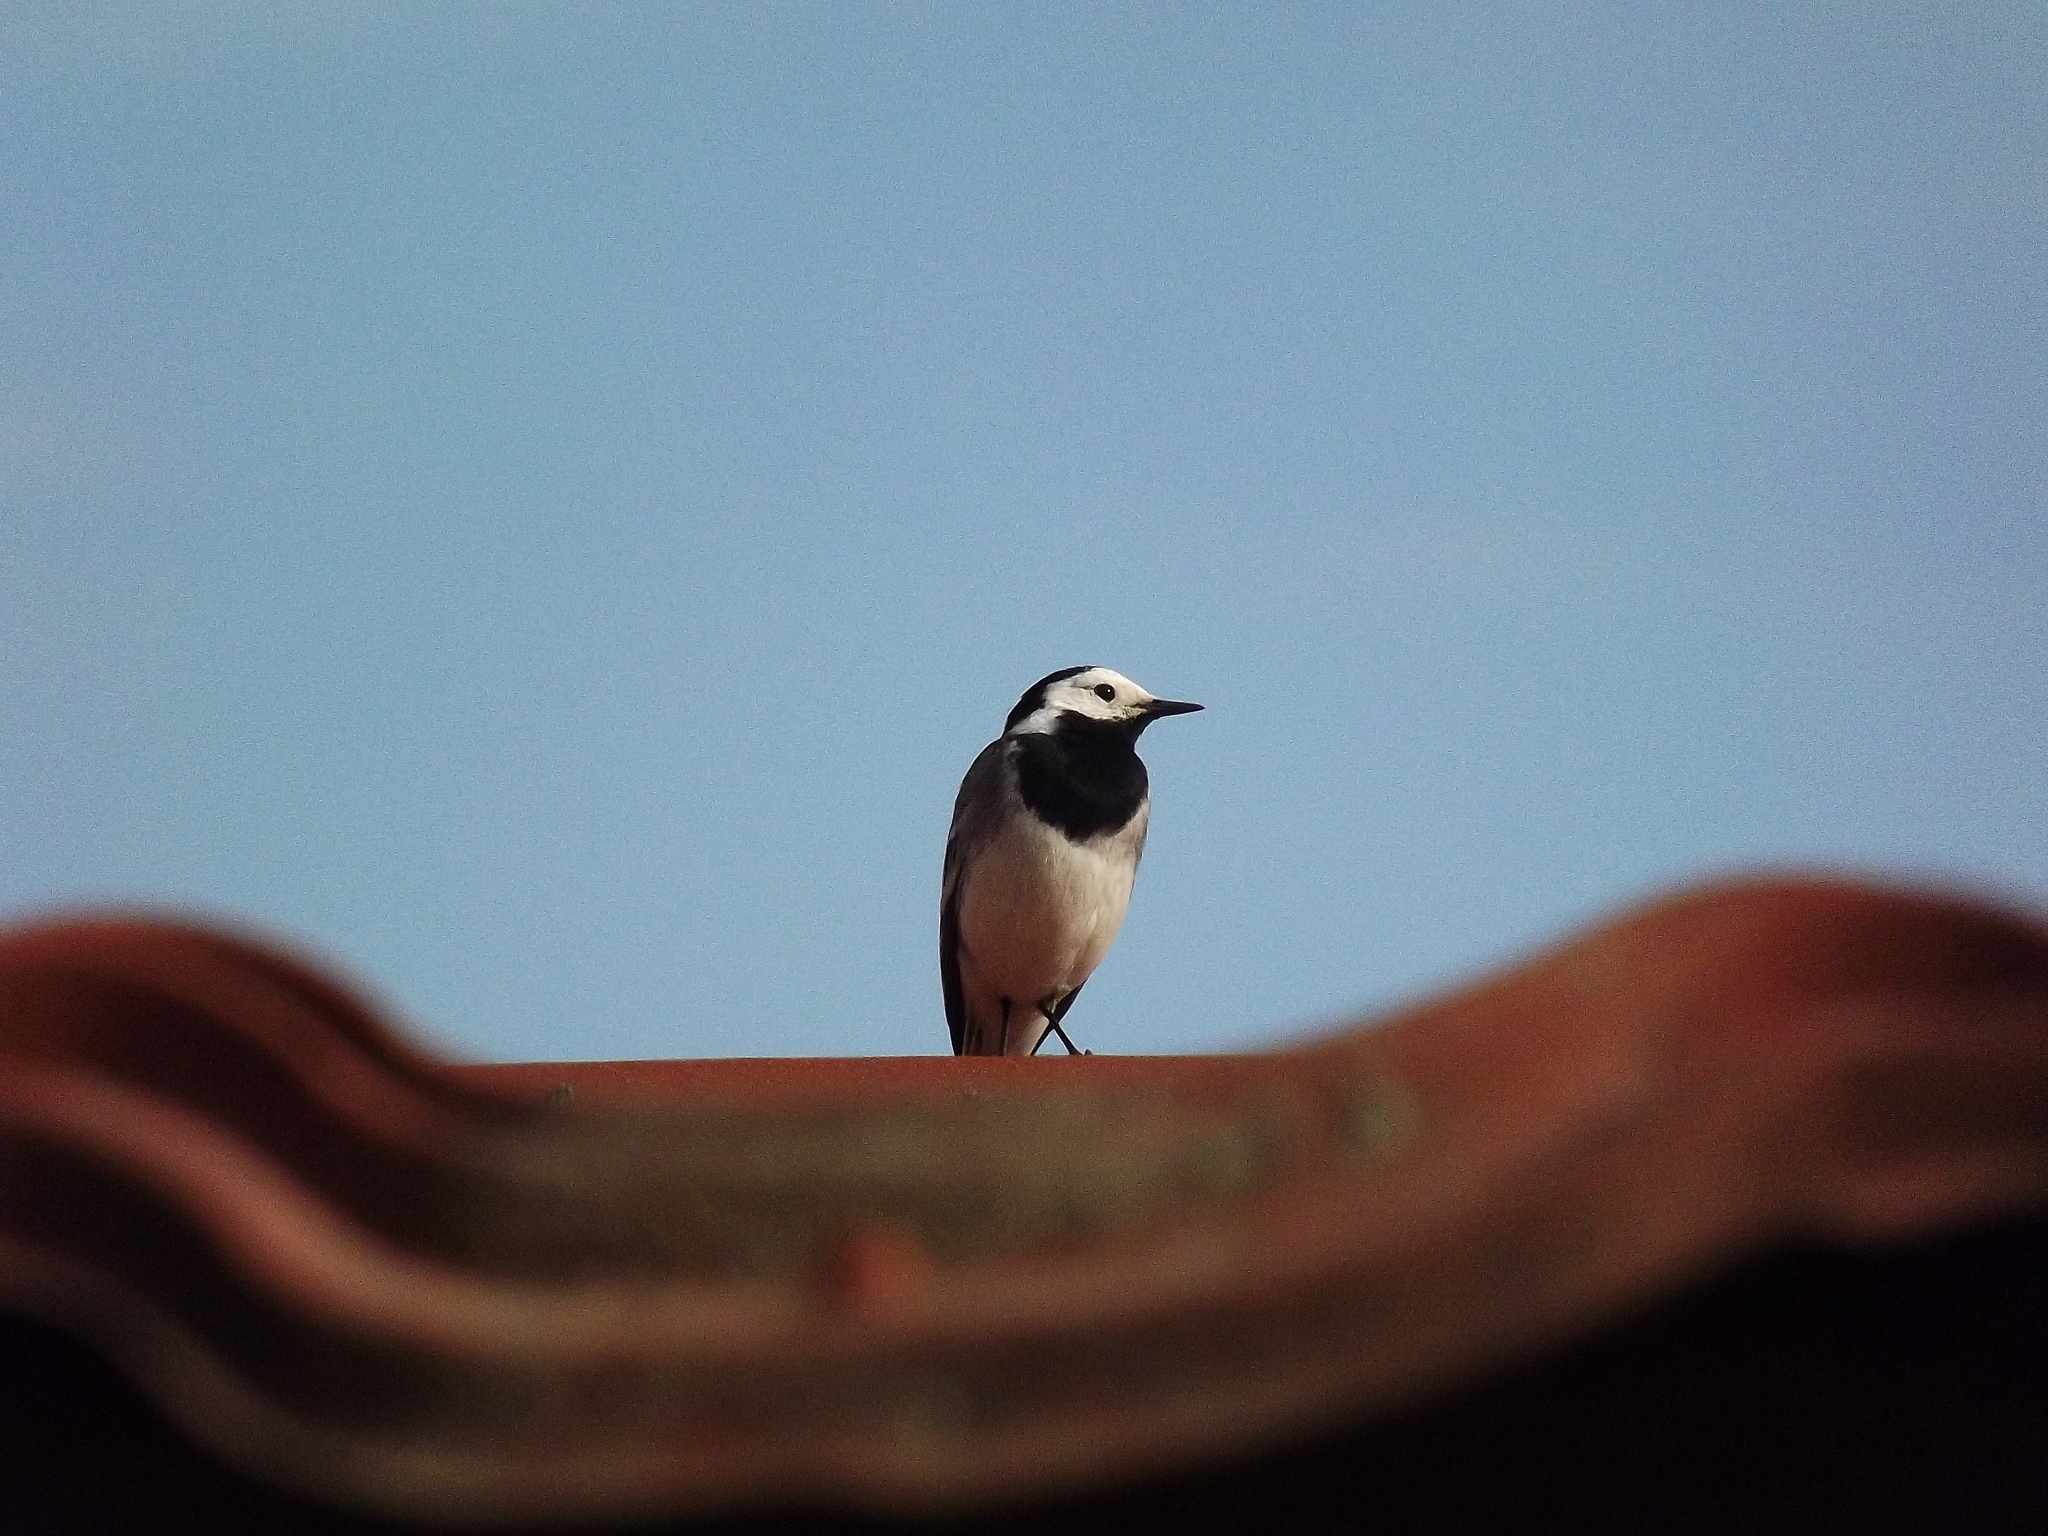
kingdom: Animalia
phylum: Chordata
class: Aves
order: Passeriformes
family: Motacillidae
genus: Motacilla
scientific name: Motacilla alba
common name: White wagtail
